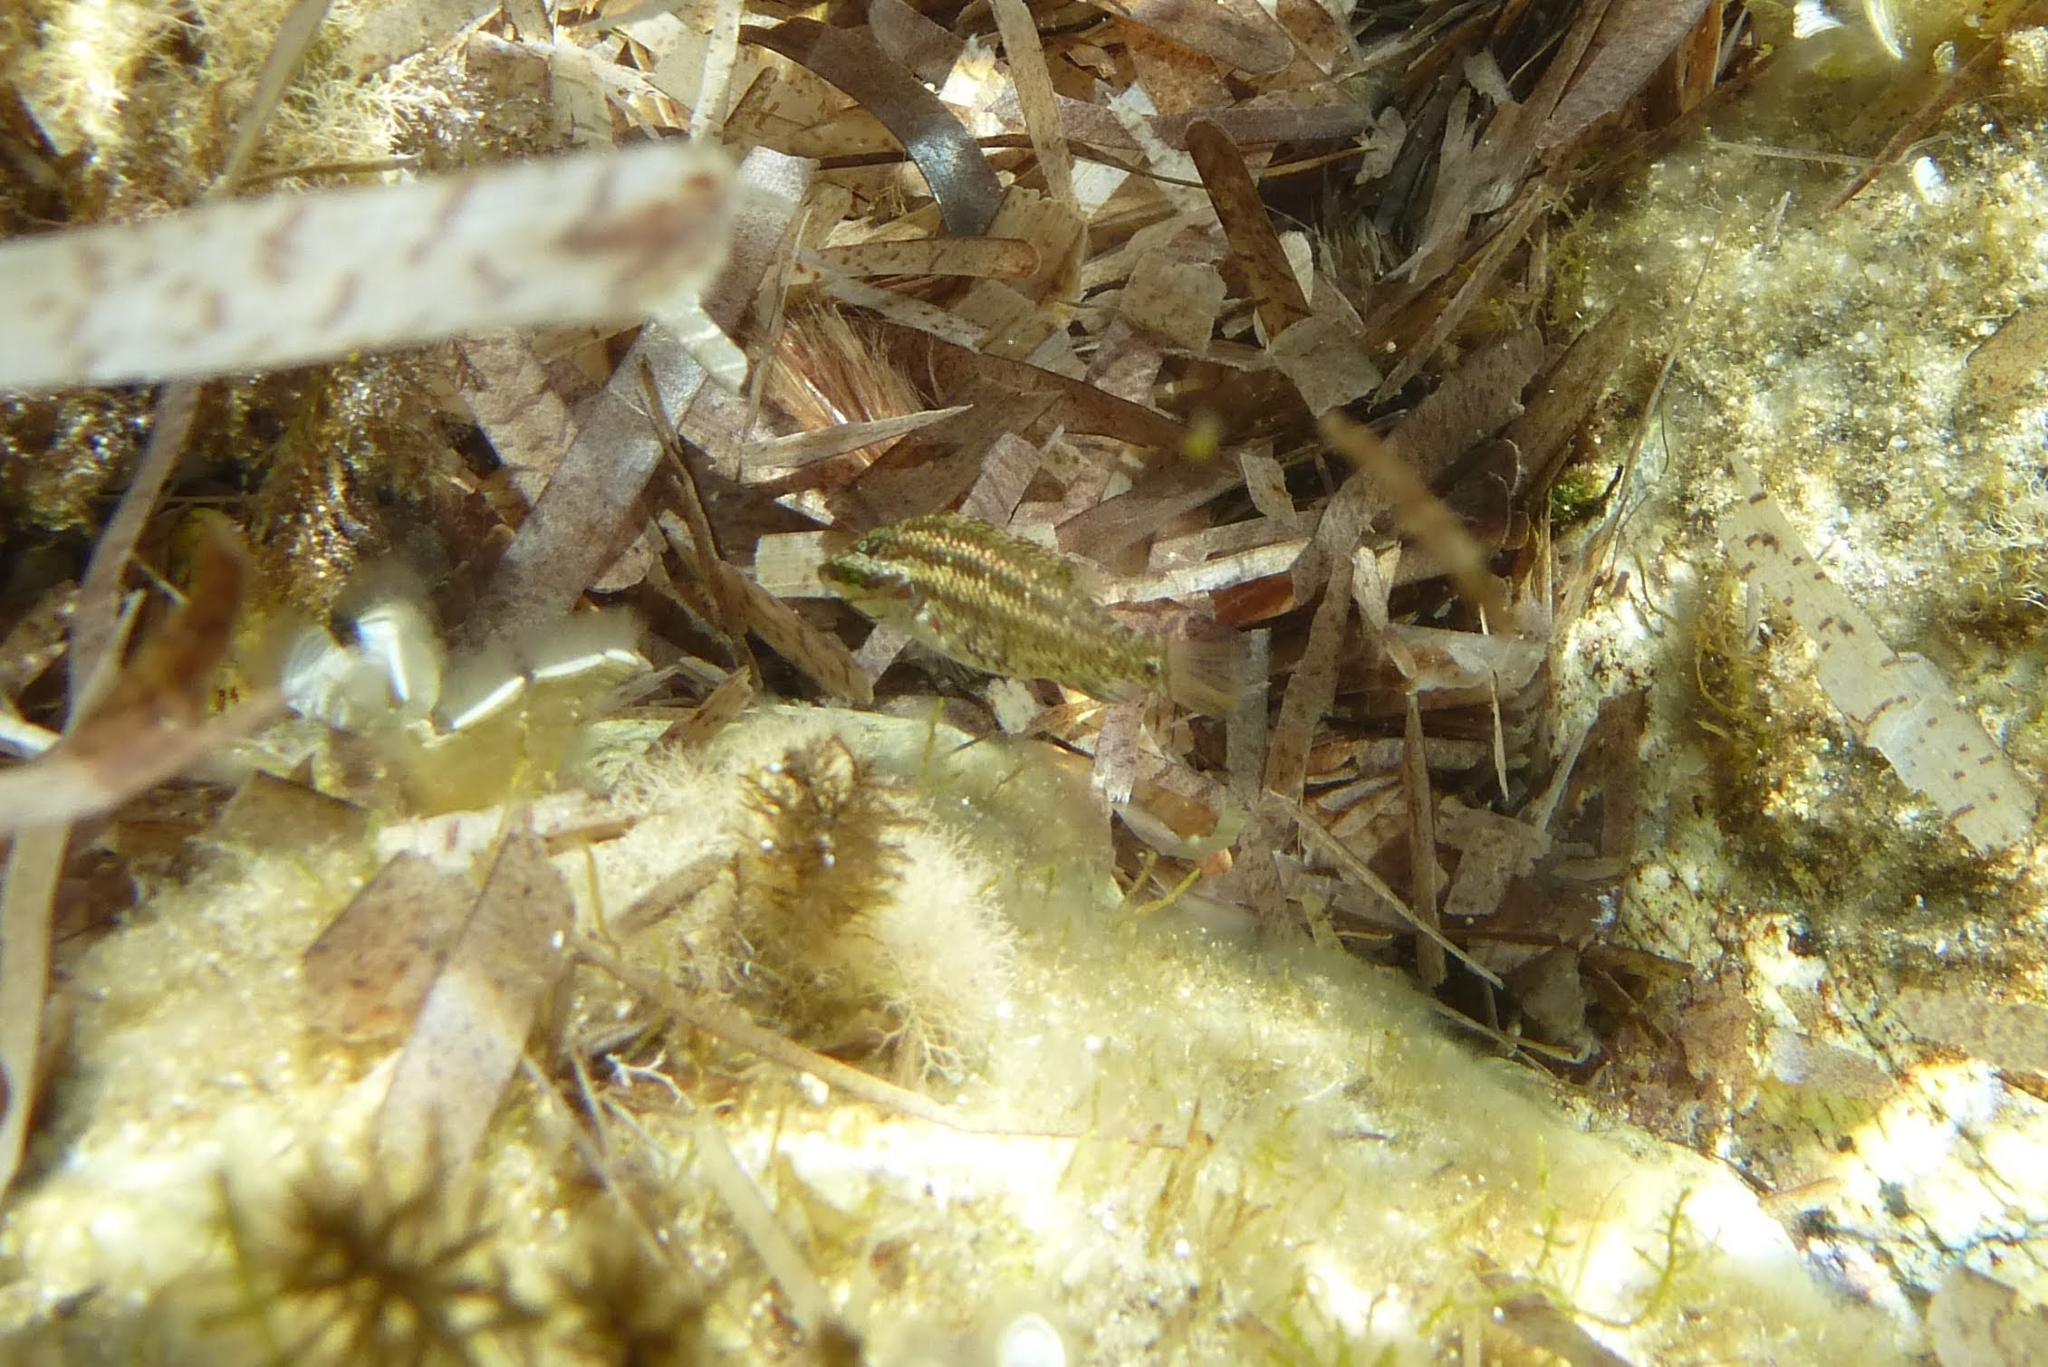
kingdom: Animalia
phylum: Chordata
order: Perciformes
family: Labridae
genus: Symphodus
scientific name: Symphodus roissali
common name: Five-spotted wrasse
